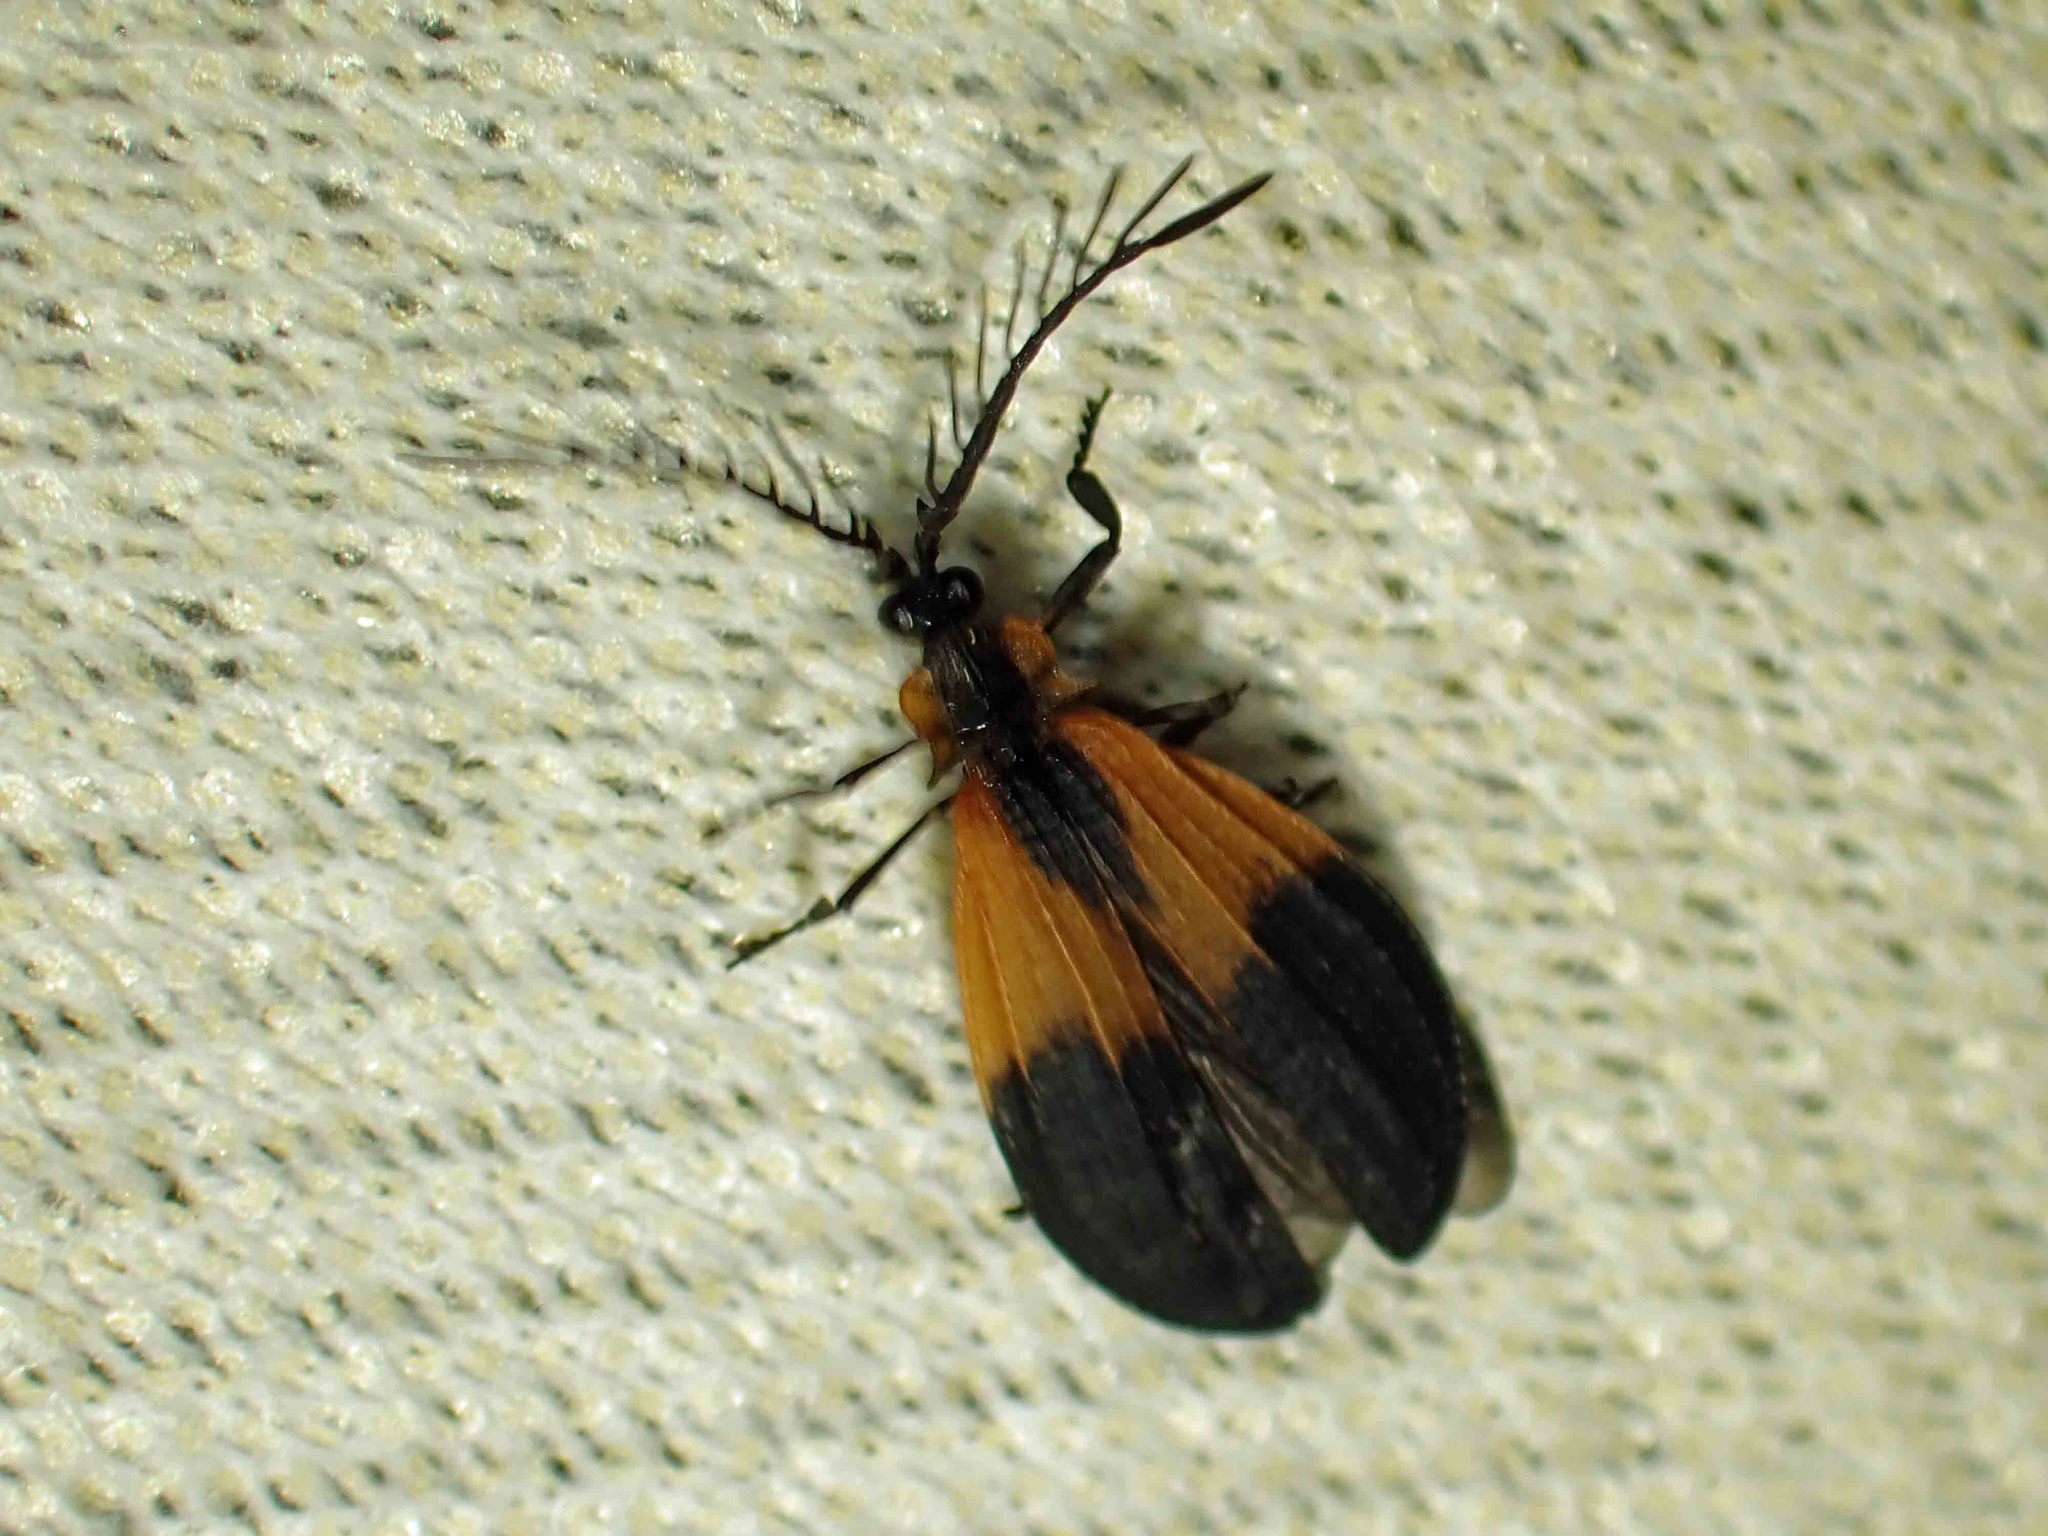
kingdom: Animalia
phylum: Arthropoda
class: Insecta
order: Coleoptera
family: Lycidae
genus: Caenia
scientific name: Caenia dimidiata
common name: Terminal net-winged beetle
